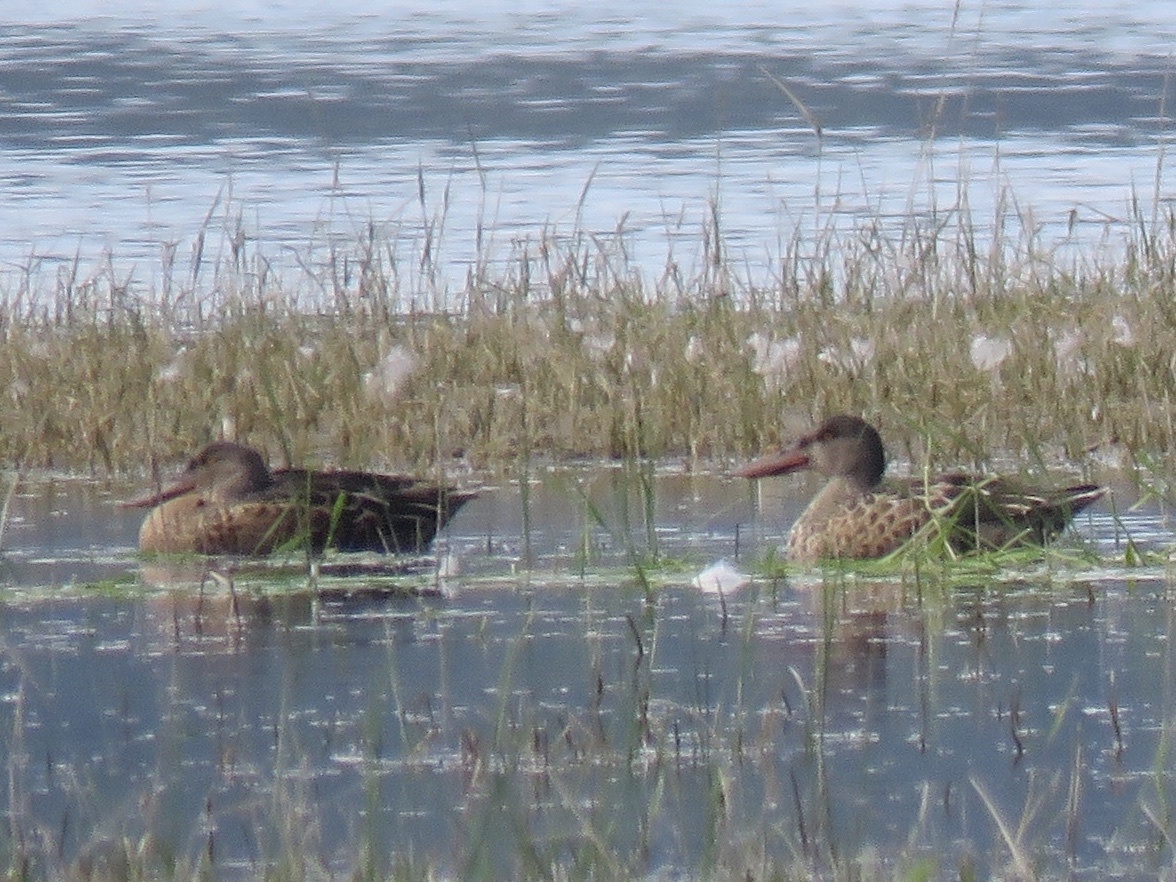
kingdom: Animalia
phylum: Chordata
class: Aves
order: Anseriformes
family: Anatidae
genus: Spatula
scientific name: Spatula clypeata
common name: Northern shoveler
